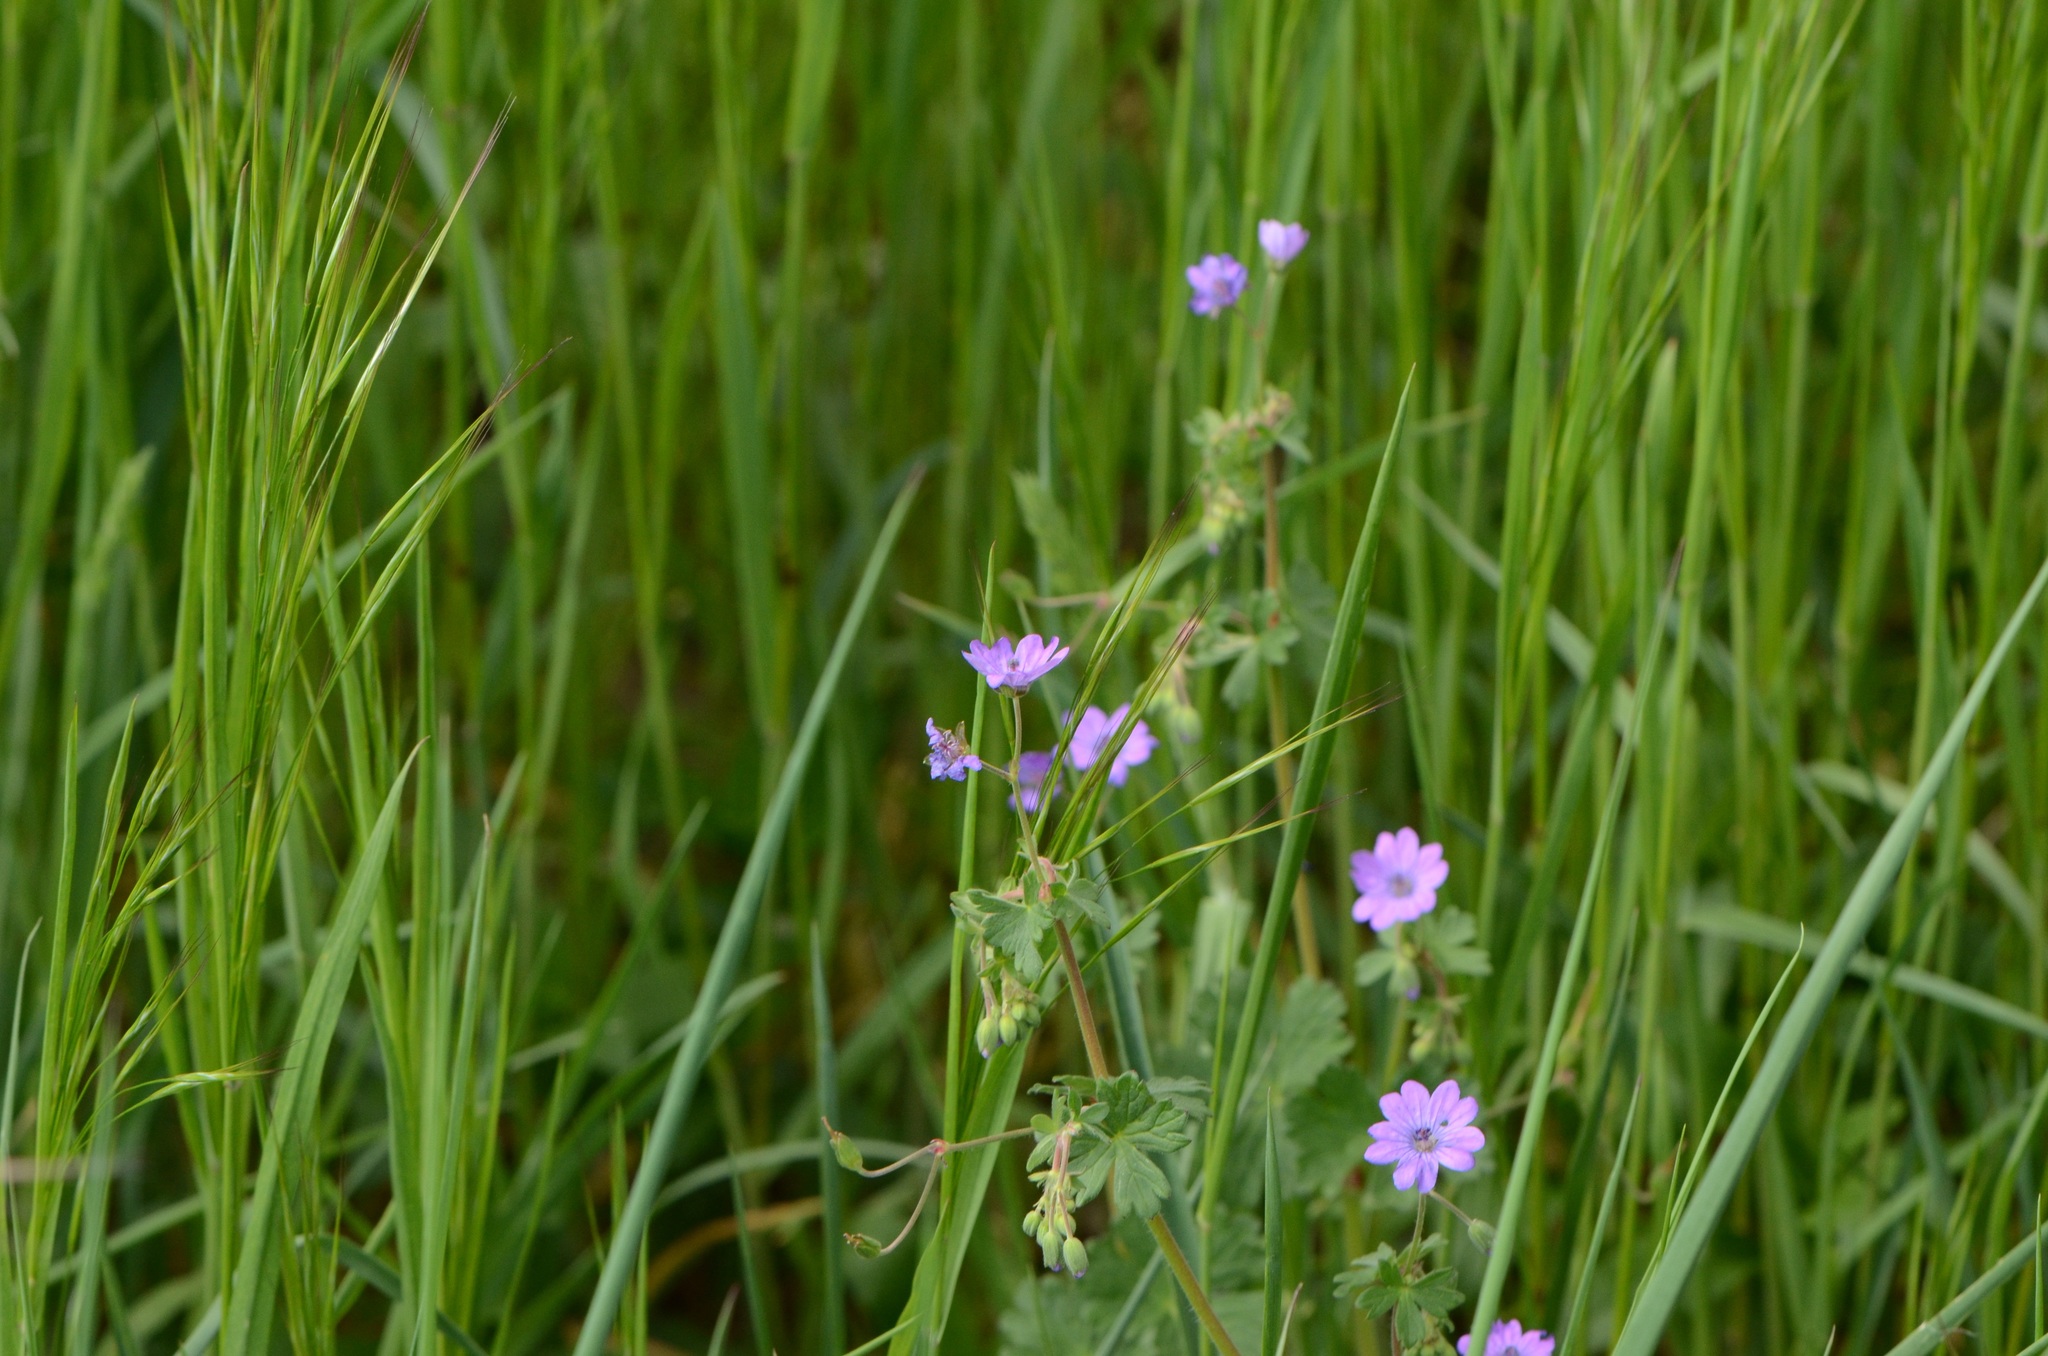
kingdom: Plantae
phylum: Tracheophyta
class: Magnoliopsida
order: Geraniales
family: Geraniaceae
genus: Geranium
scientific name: Geranium pyrenaicum
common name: Hedgerow crane's-bill
